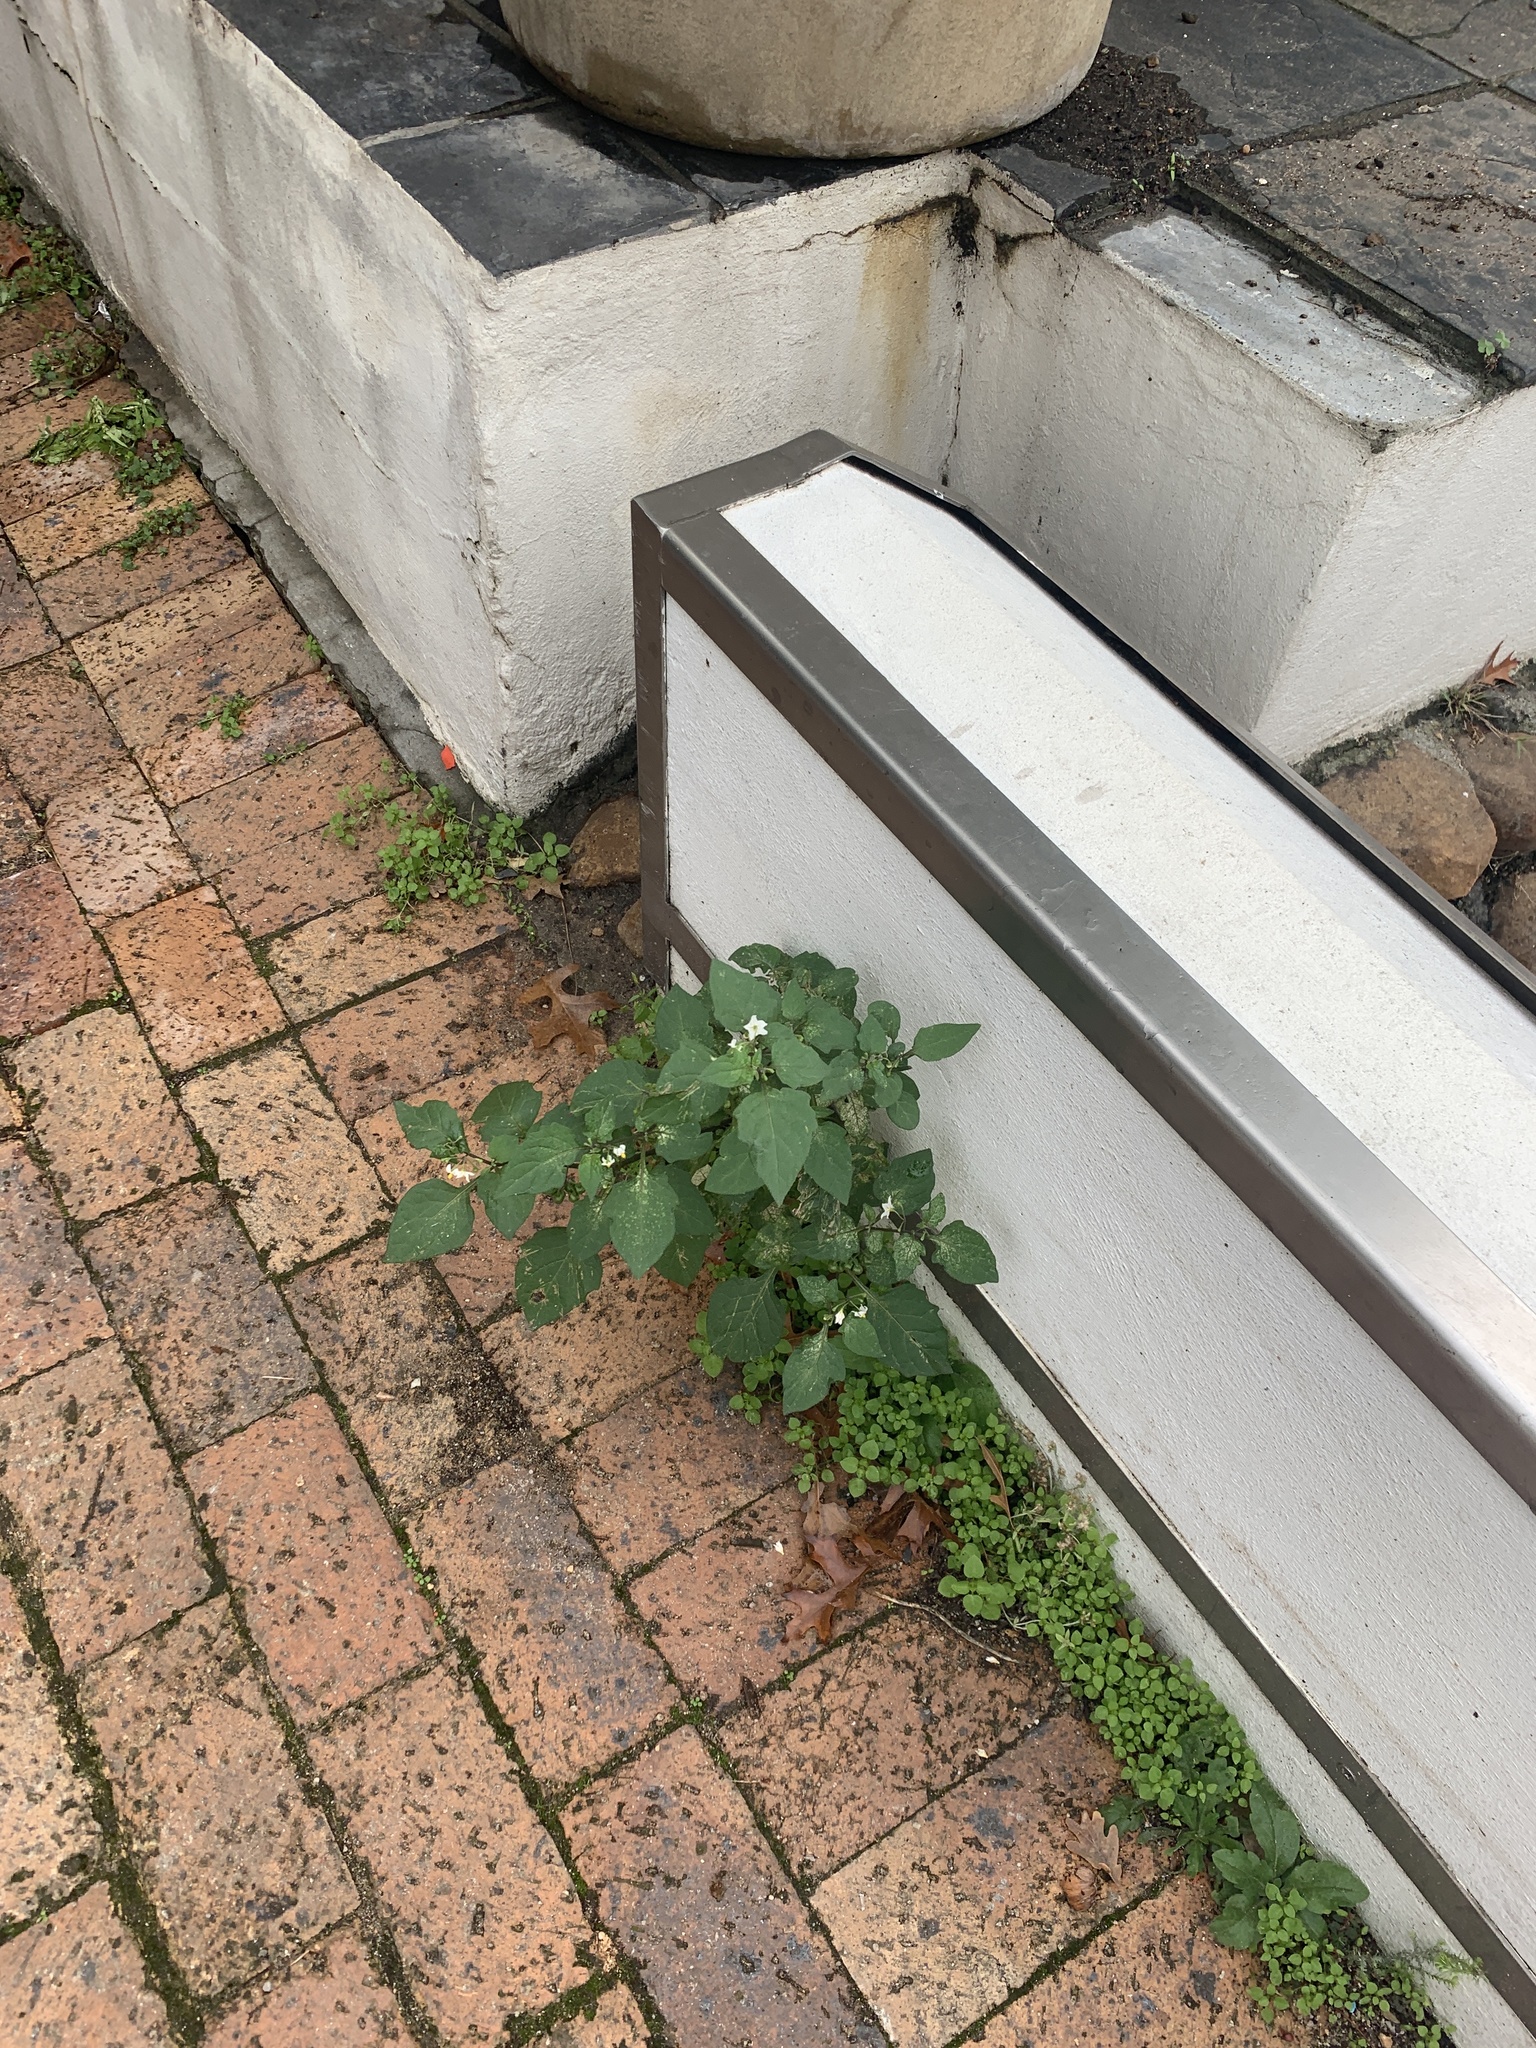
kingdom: Plantae
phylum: Tracheophyta
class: Magnoliopsida
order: Solanales
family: Solanaceae
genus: Solanum
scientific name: Solanum nigrum
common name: Black nightshade
